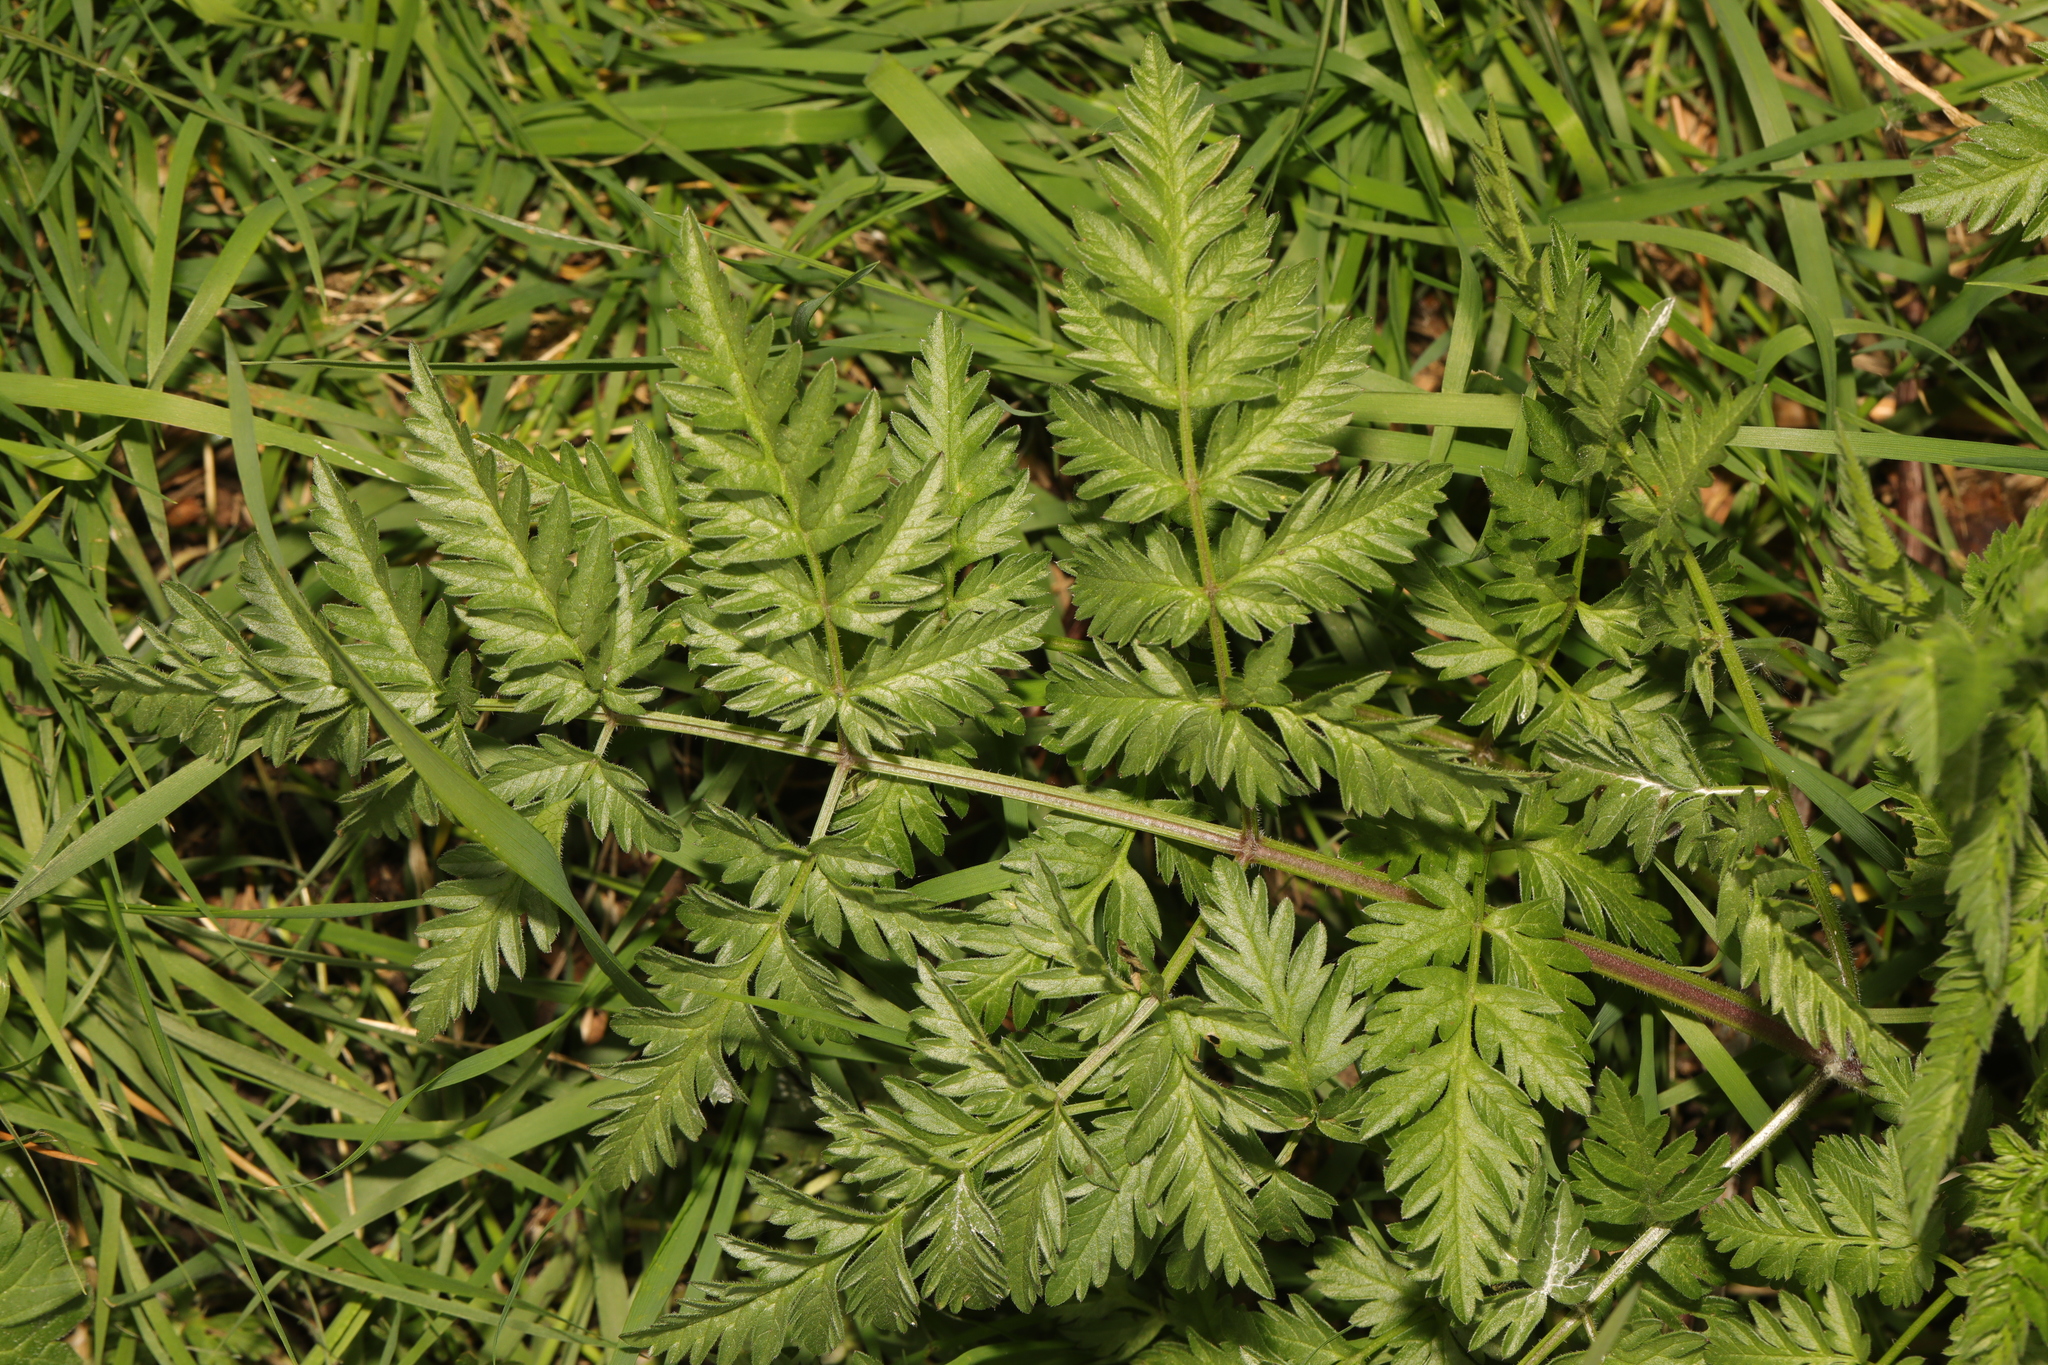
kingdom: Plantae
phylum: Tracheophyta
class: Magnoliopsida
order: Apiales
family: Apiaceae
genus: Anthriscus
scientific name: Anthriscus sylvestris
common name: Cow parsley
